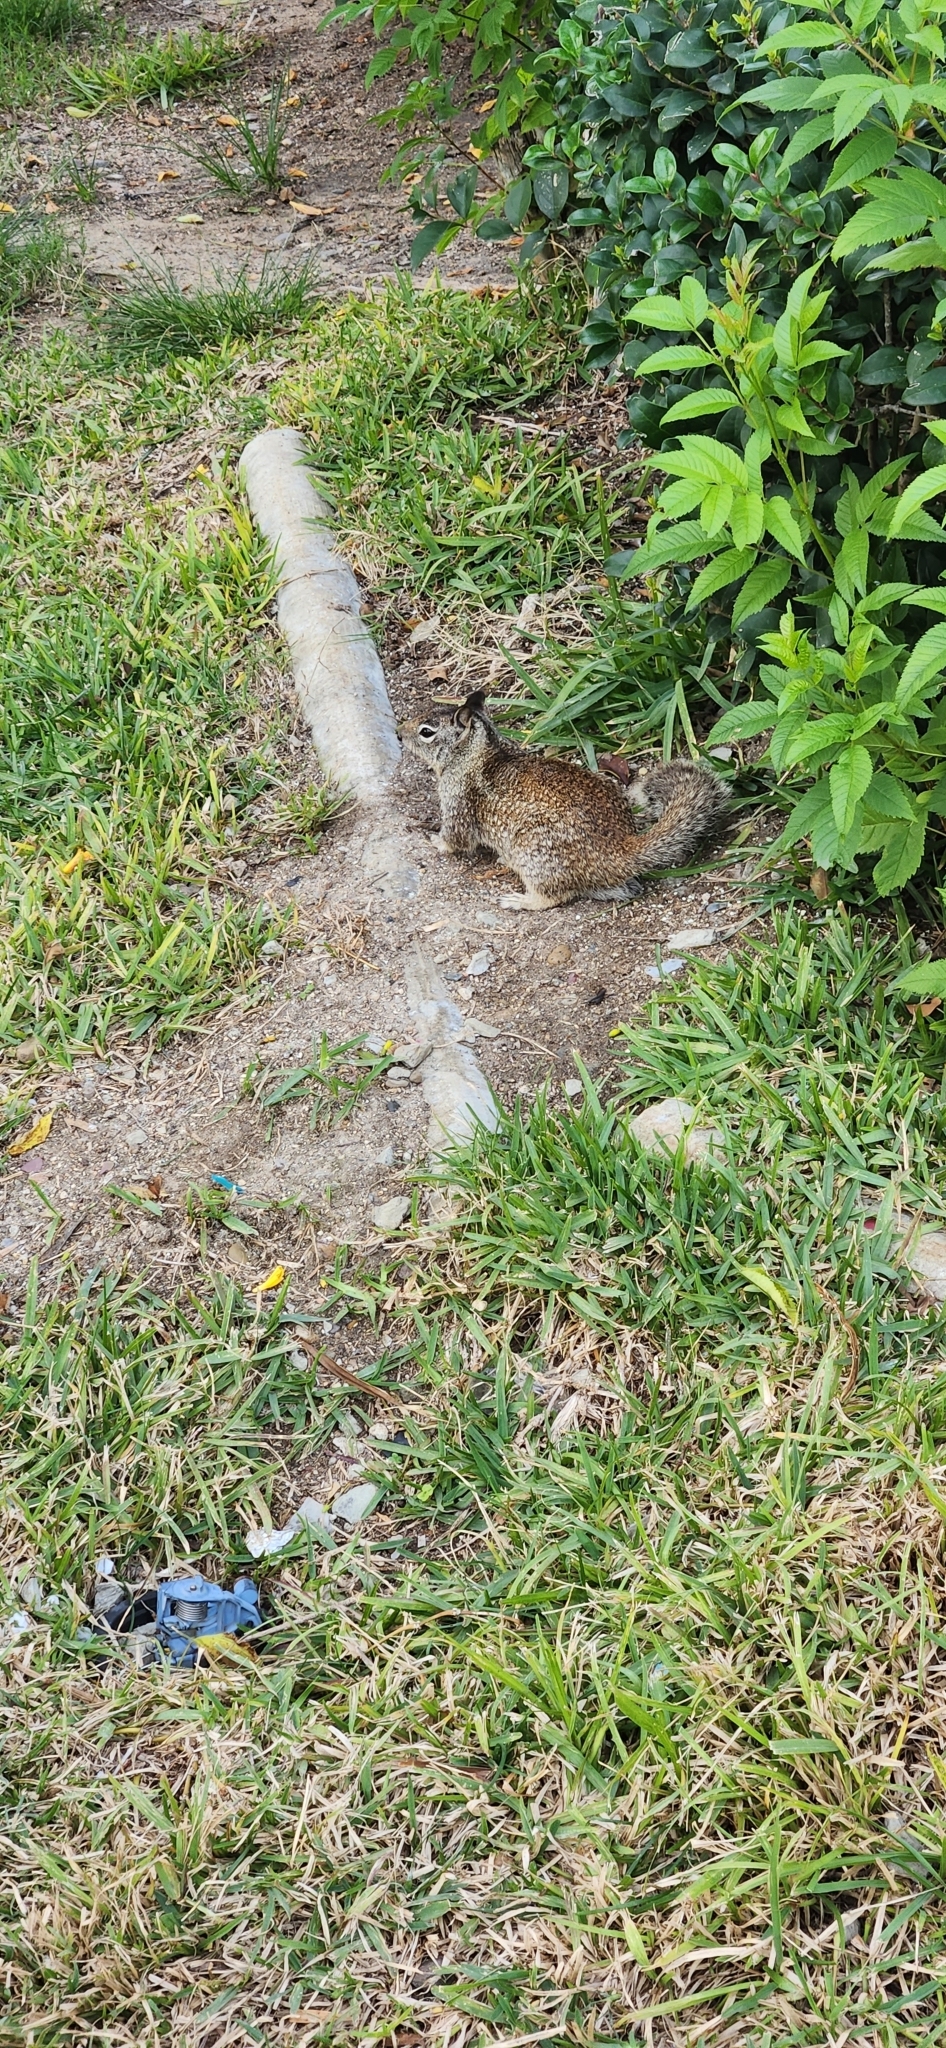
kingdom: Animalia
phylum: Chordata
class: Mammalia
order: Rodentia
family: Sciuridae
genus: Otospermophilus
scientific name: Otospermophilus beecheyi
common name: California ground squirrel
